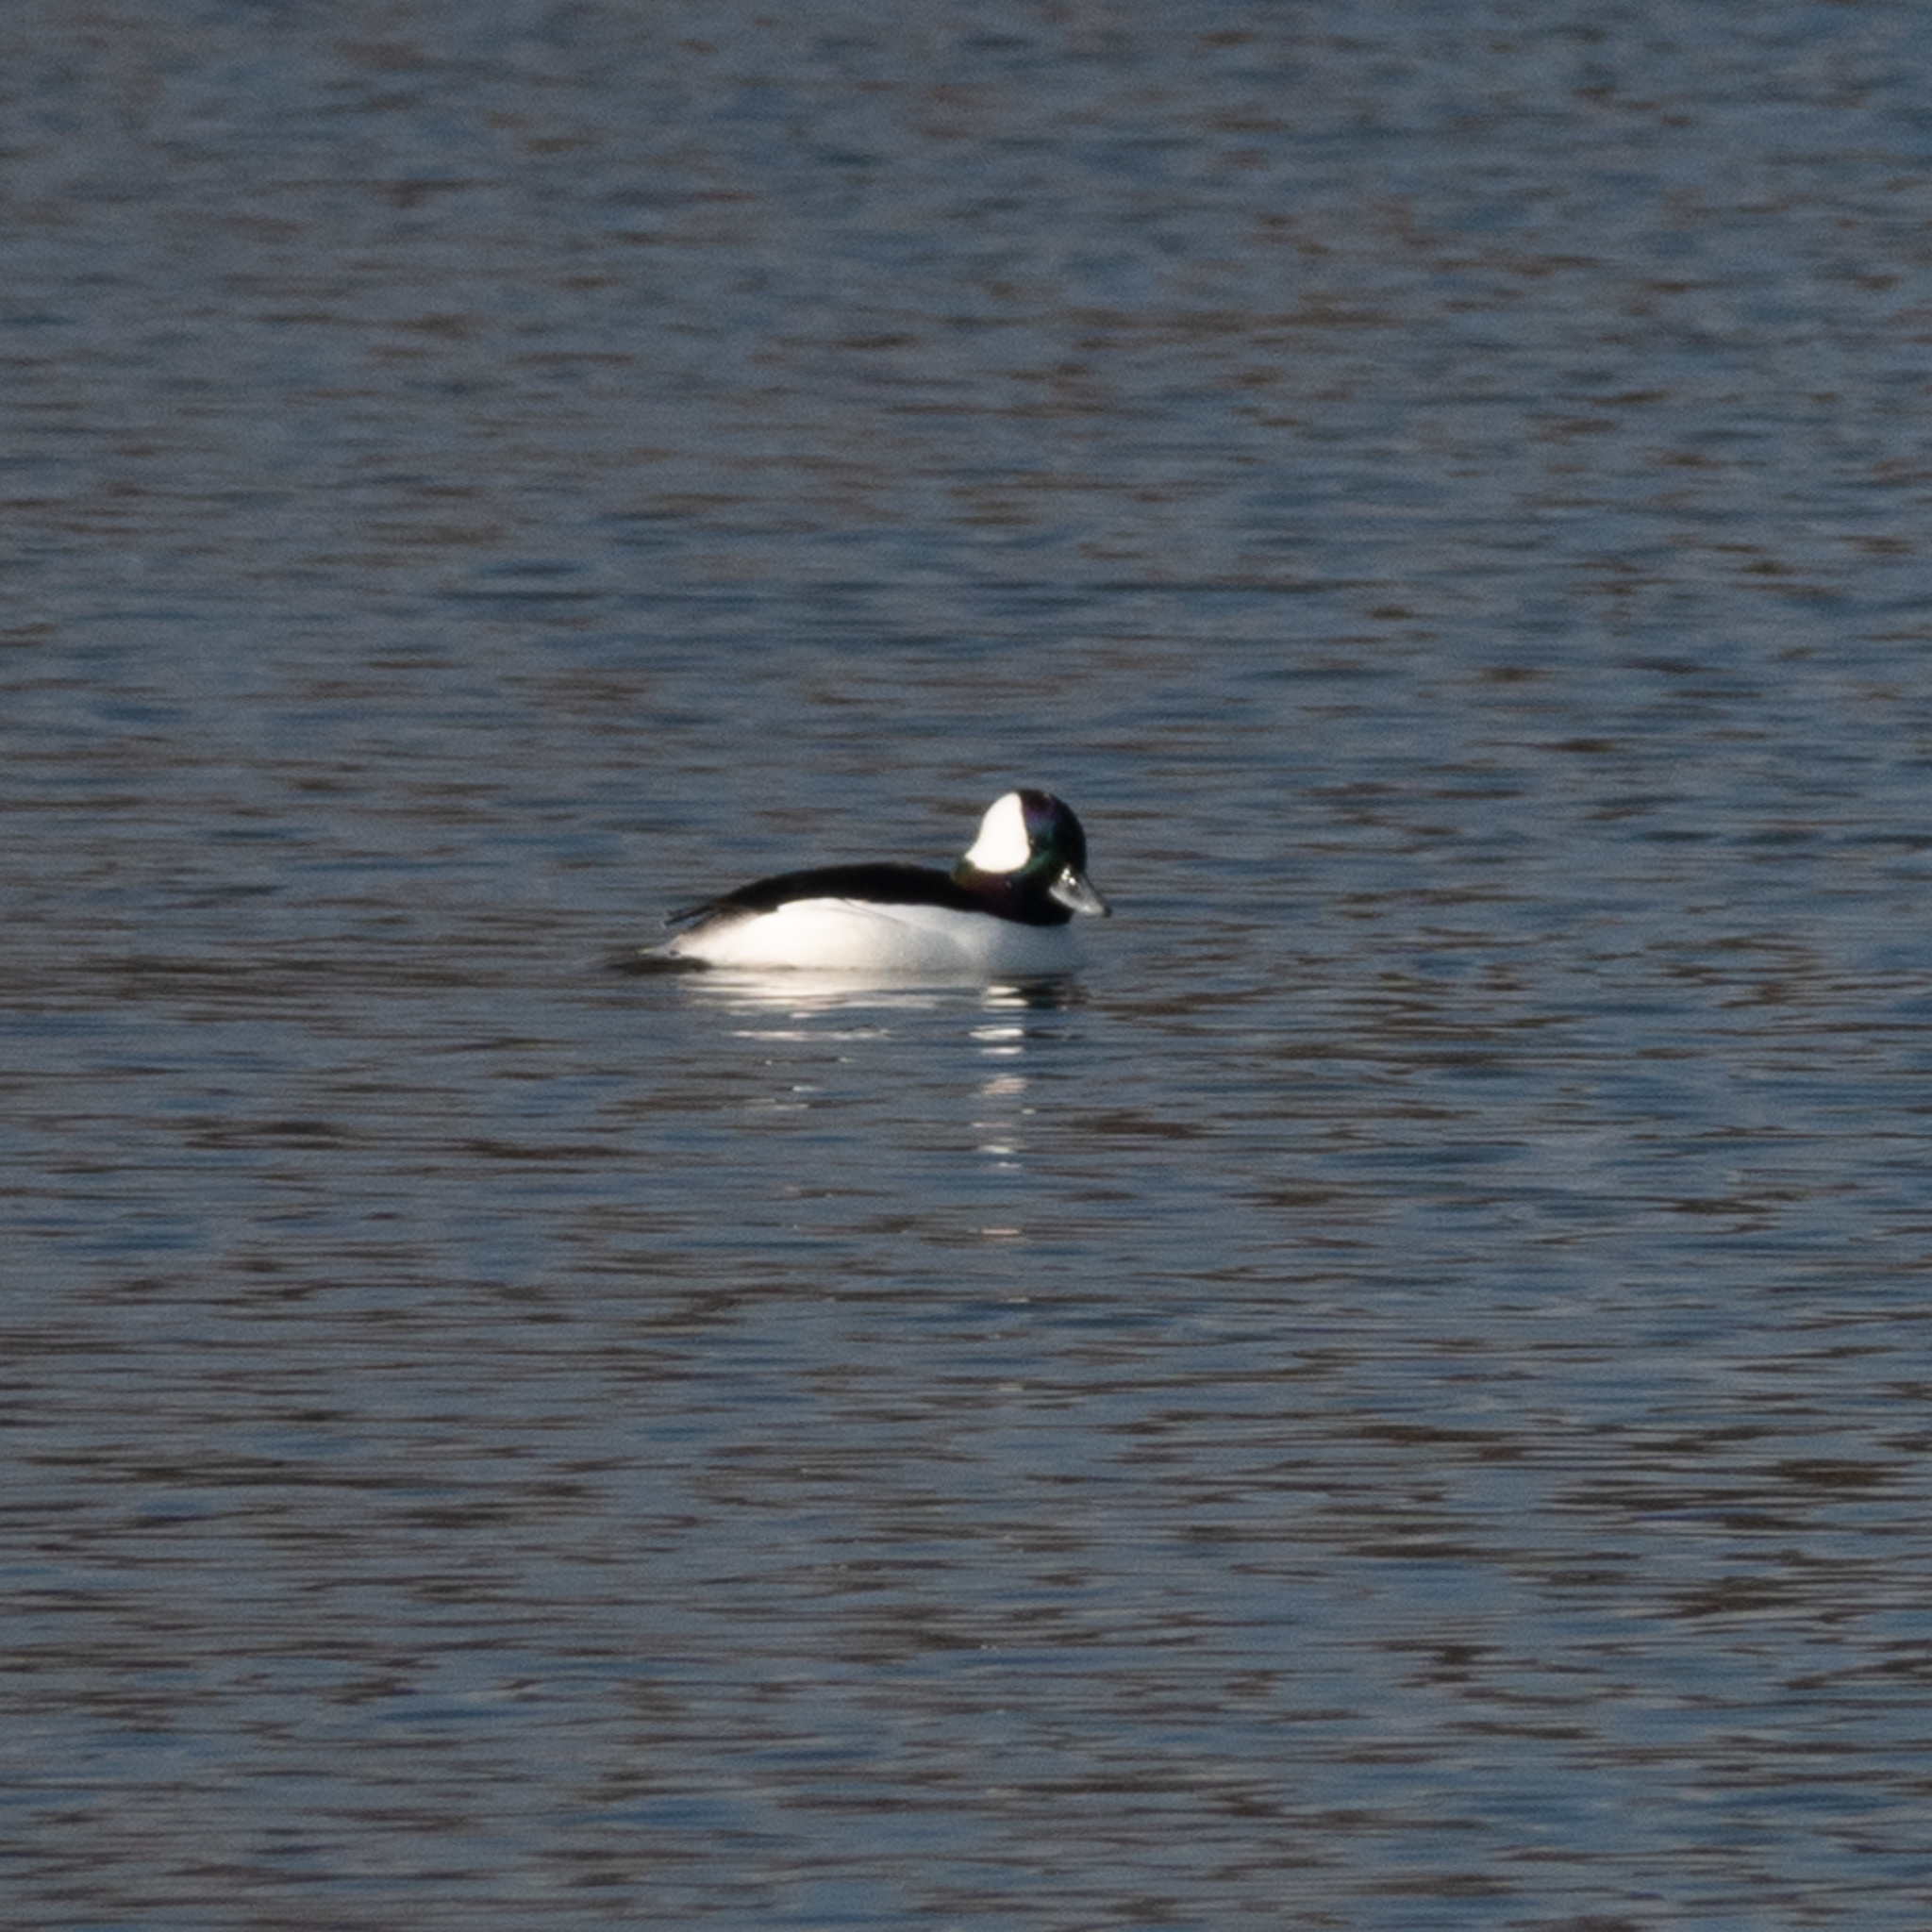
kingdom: Animalia
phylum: Chordata
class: Aves
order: Anseriformes
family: Anatidae
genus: Bucephala
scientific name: Bucephala albeola
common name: Bufflehead
